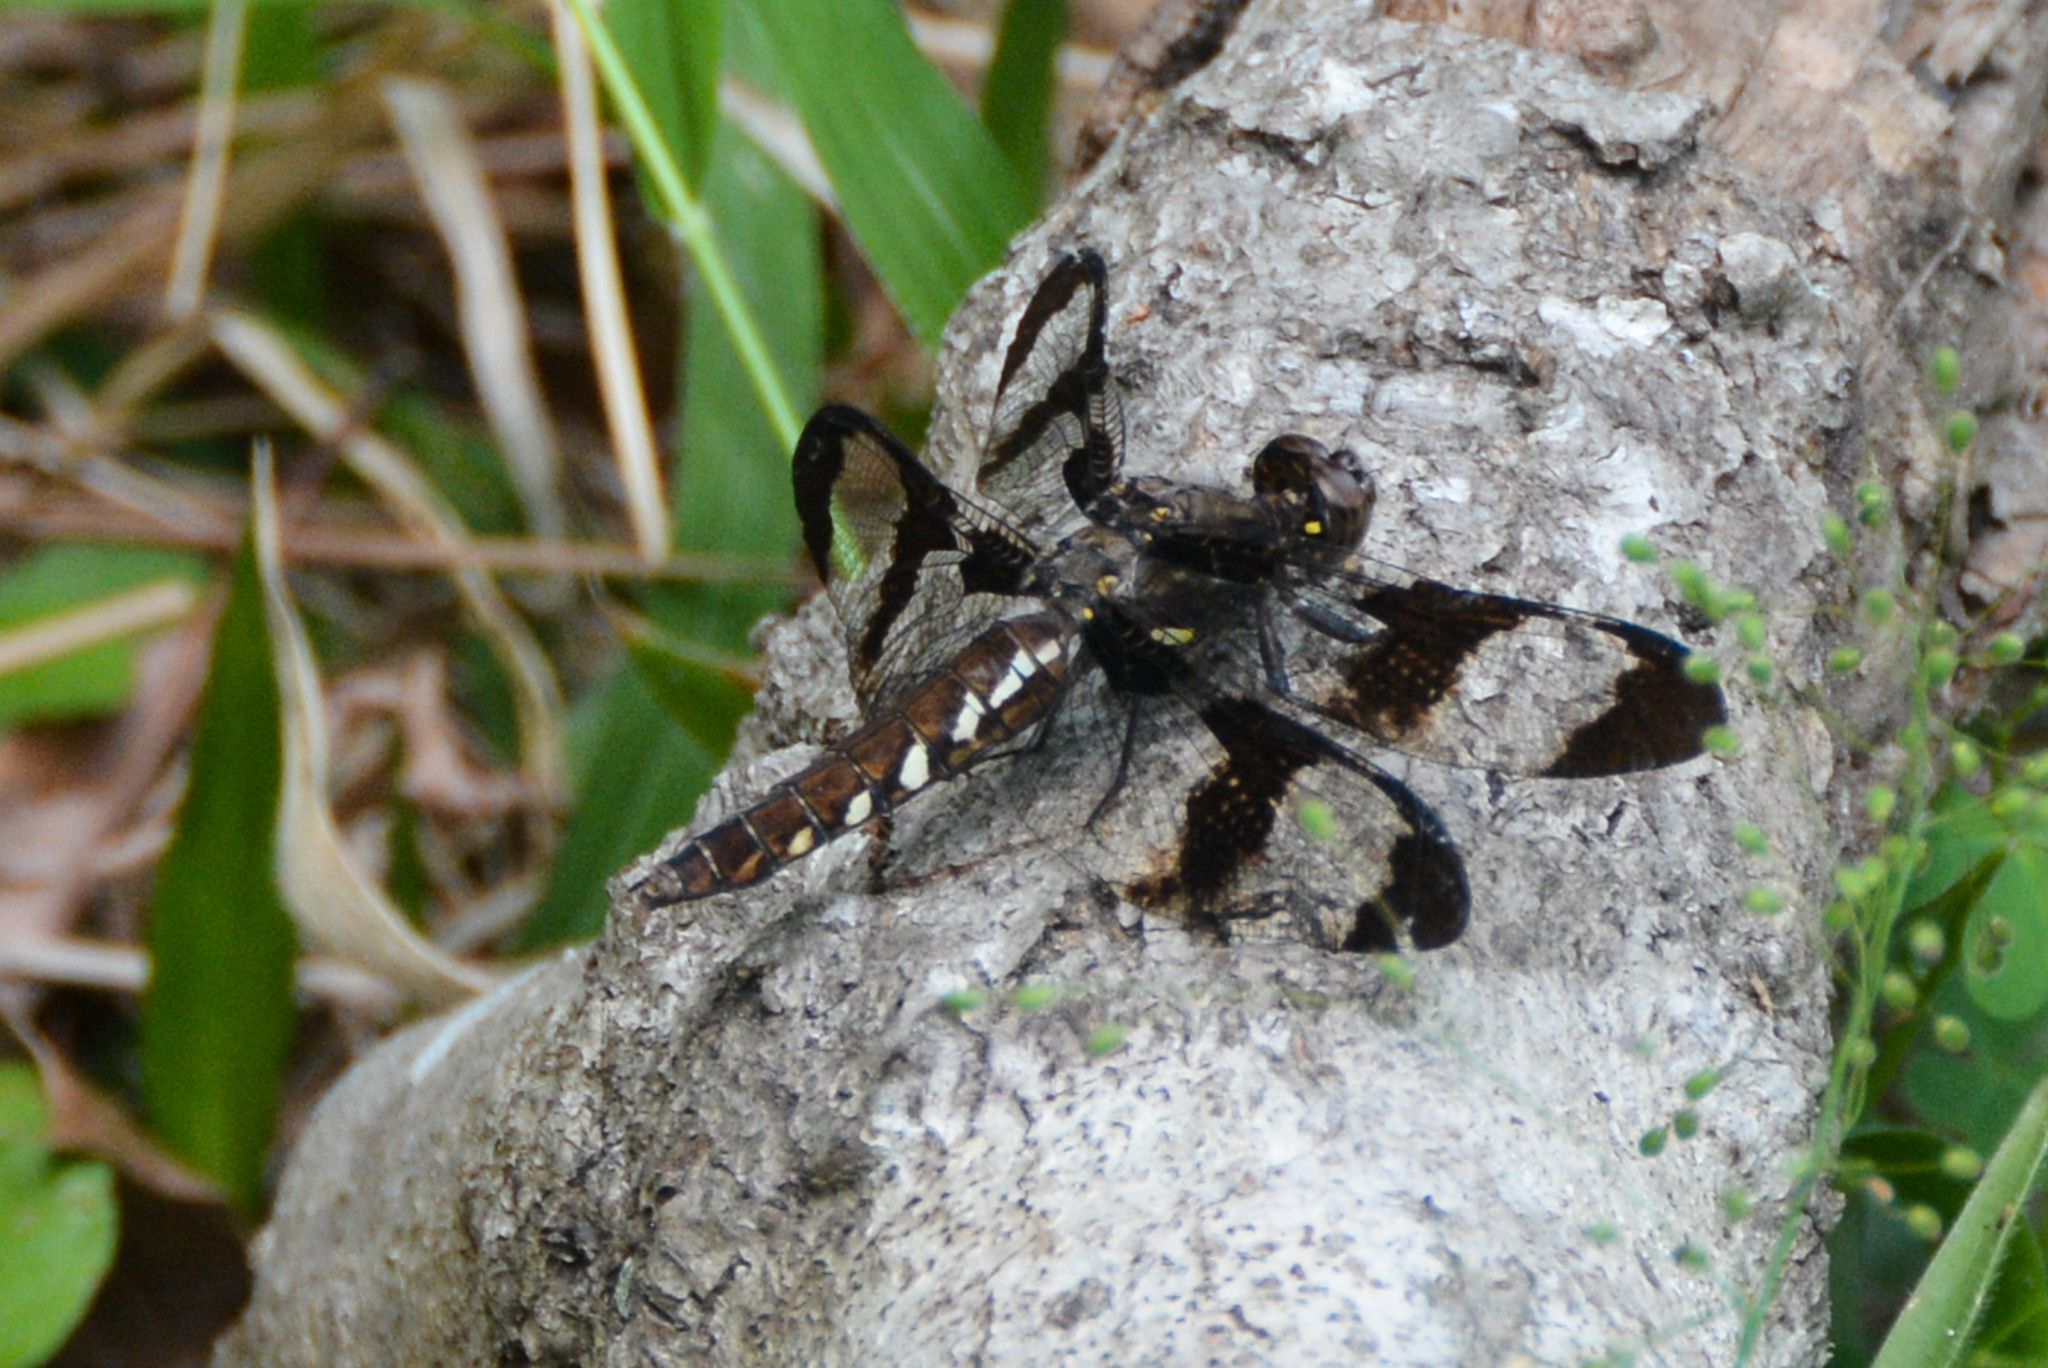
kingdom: Animalia
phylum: Arthropoda
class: Insecta
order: Odonata
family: Libellulidae
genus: Plathemis
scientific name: Plathemis lydia
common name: Common whitetail
